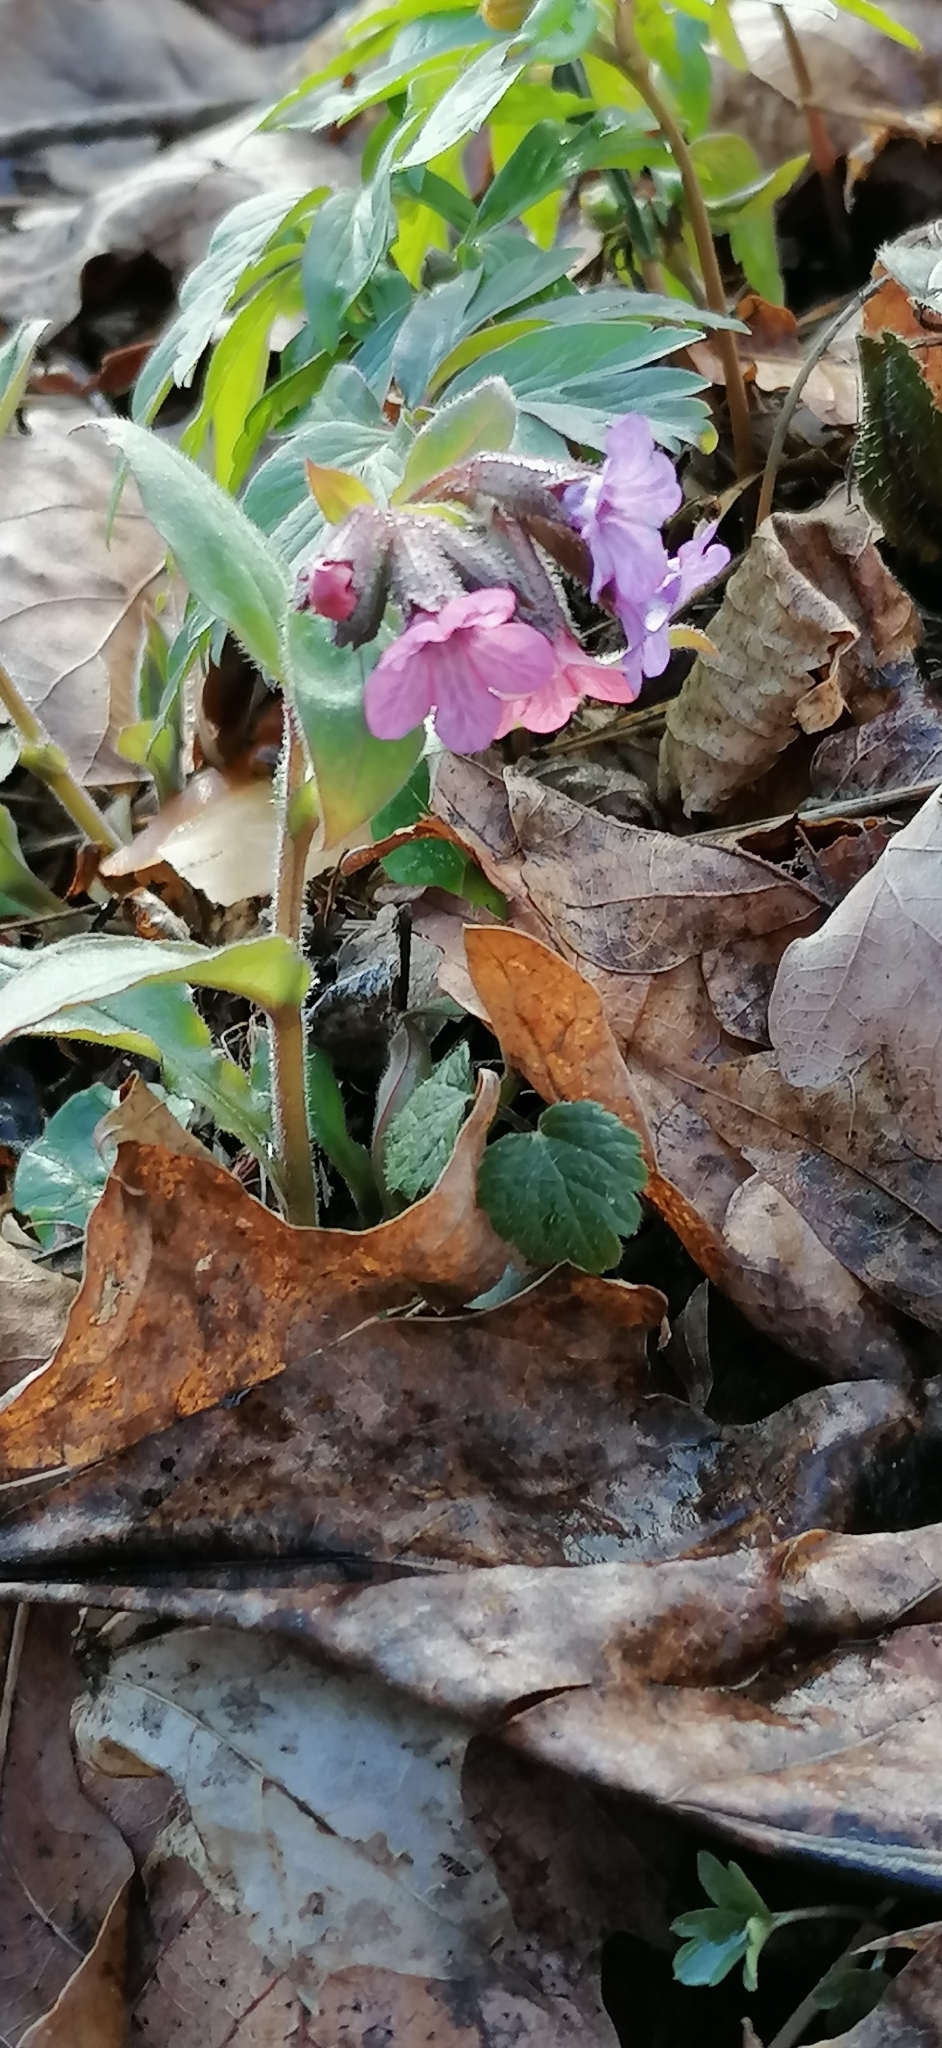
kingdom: Plantae
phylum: Tracheophyta
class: Magnoliopsida
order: Boraginales
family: Boraginaceae
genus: Pulmonaria
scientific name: Pulmonaria obscura
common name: Suffolk lungwort
